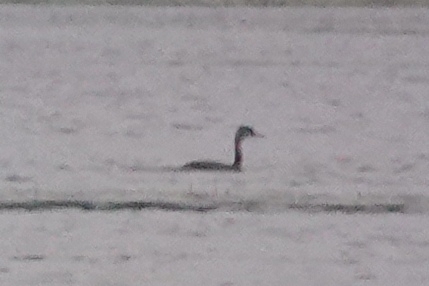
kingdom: Animalia
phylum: Chordata
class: Aves
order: Podicipediformes
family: Podicipedidae
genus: Podiceps
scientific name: Podiceps cristatus
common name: Great crested grebe
